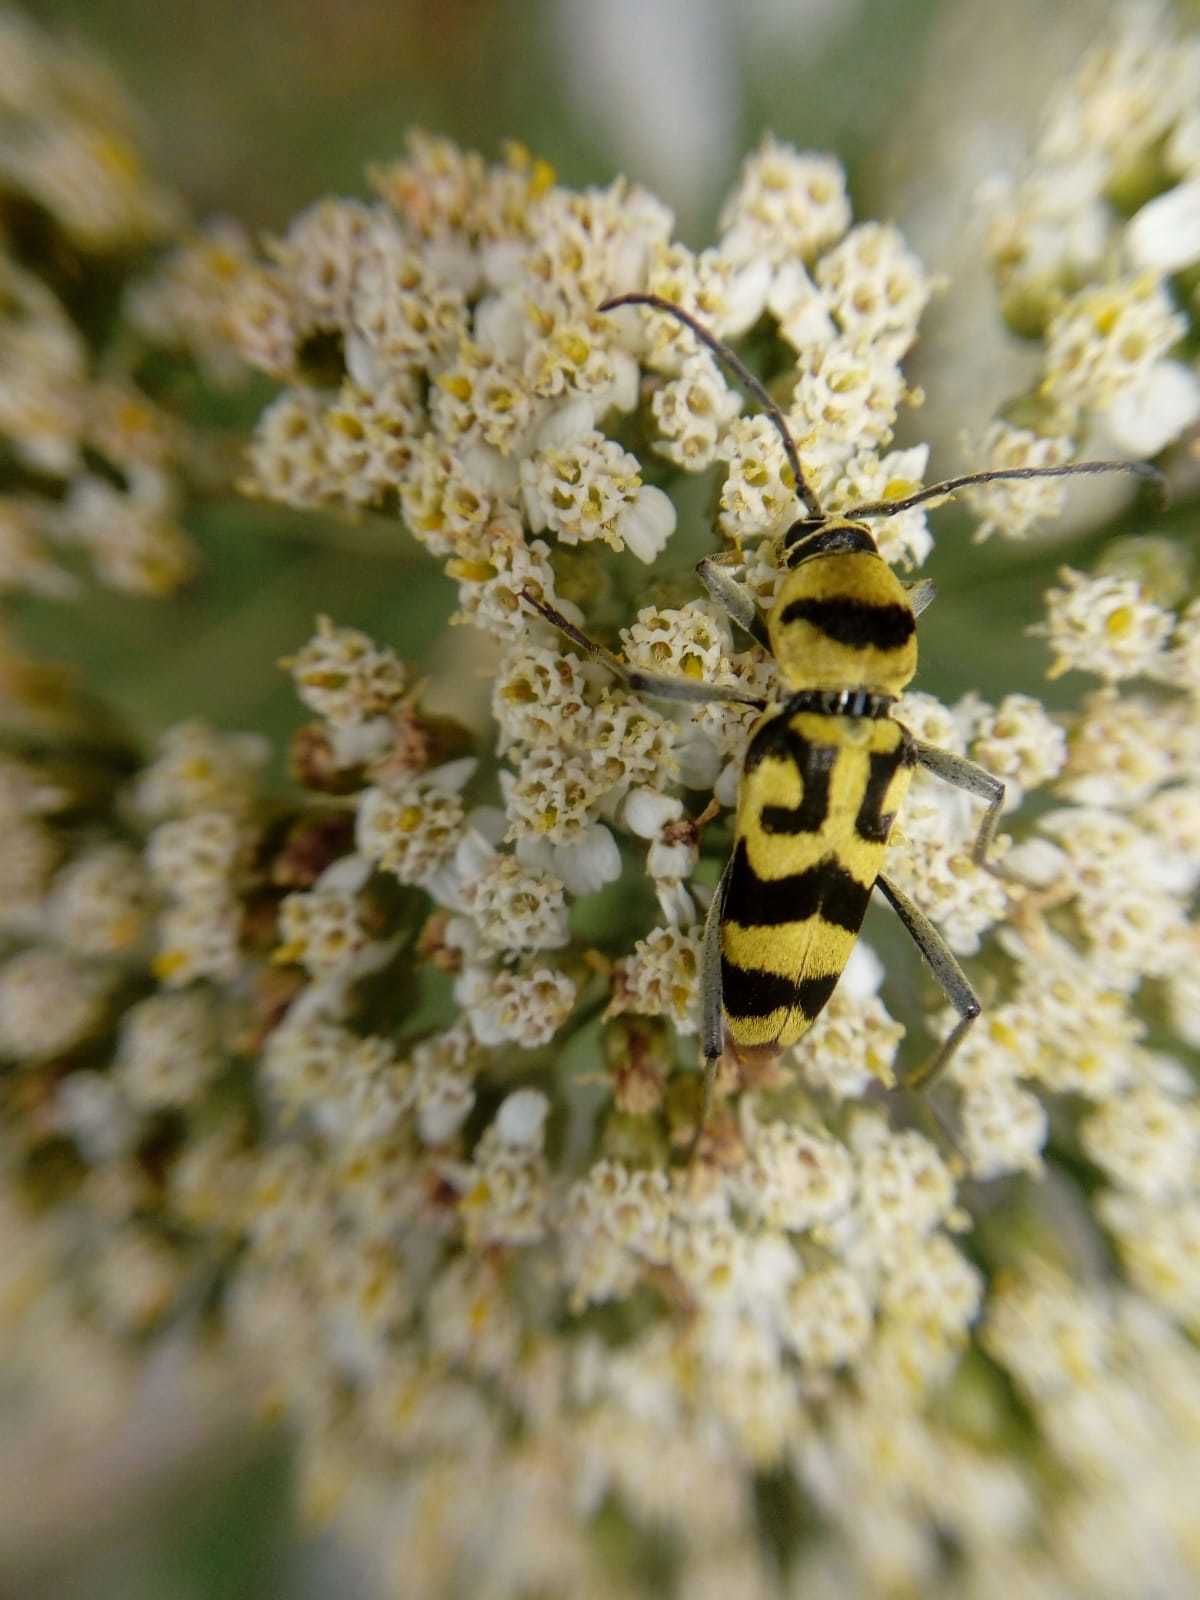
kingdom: Animalia
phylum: Arthropoda
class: Insecta
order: Coleoptera
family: Cerambycidae
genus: Chlorophorus
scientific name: Chlorophorus varius
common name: Grape wood borer
